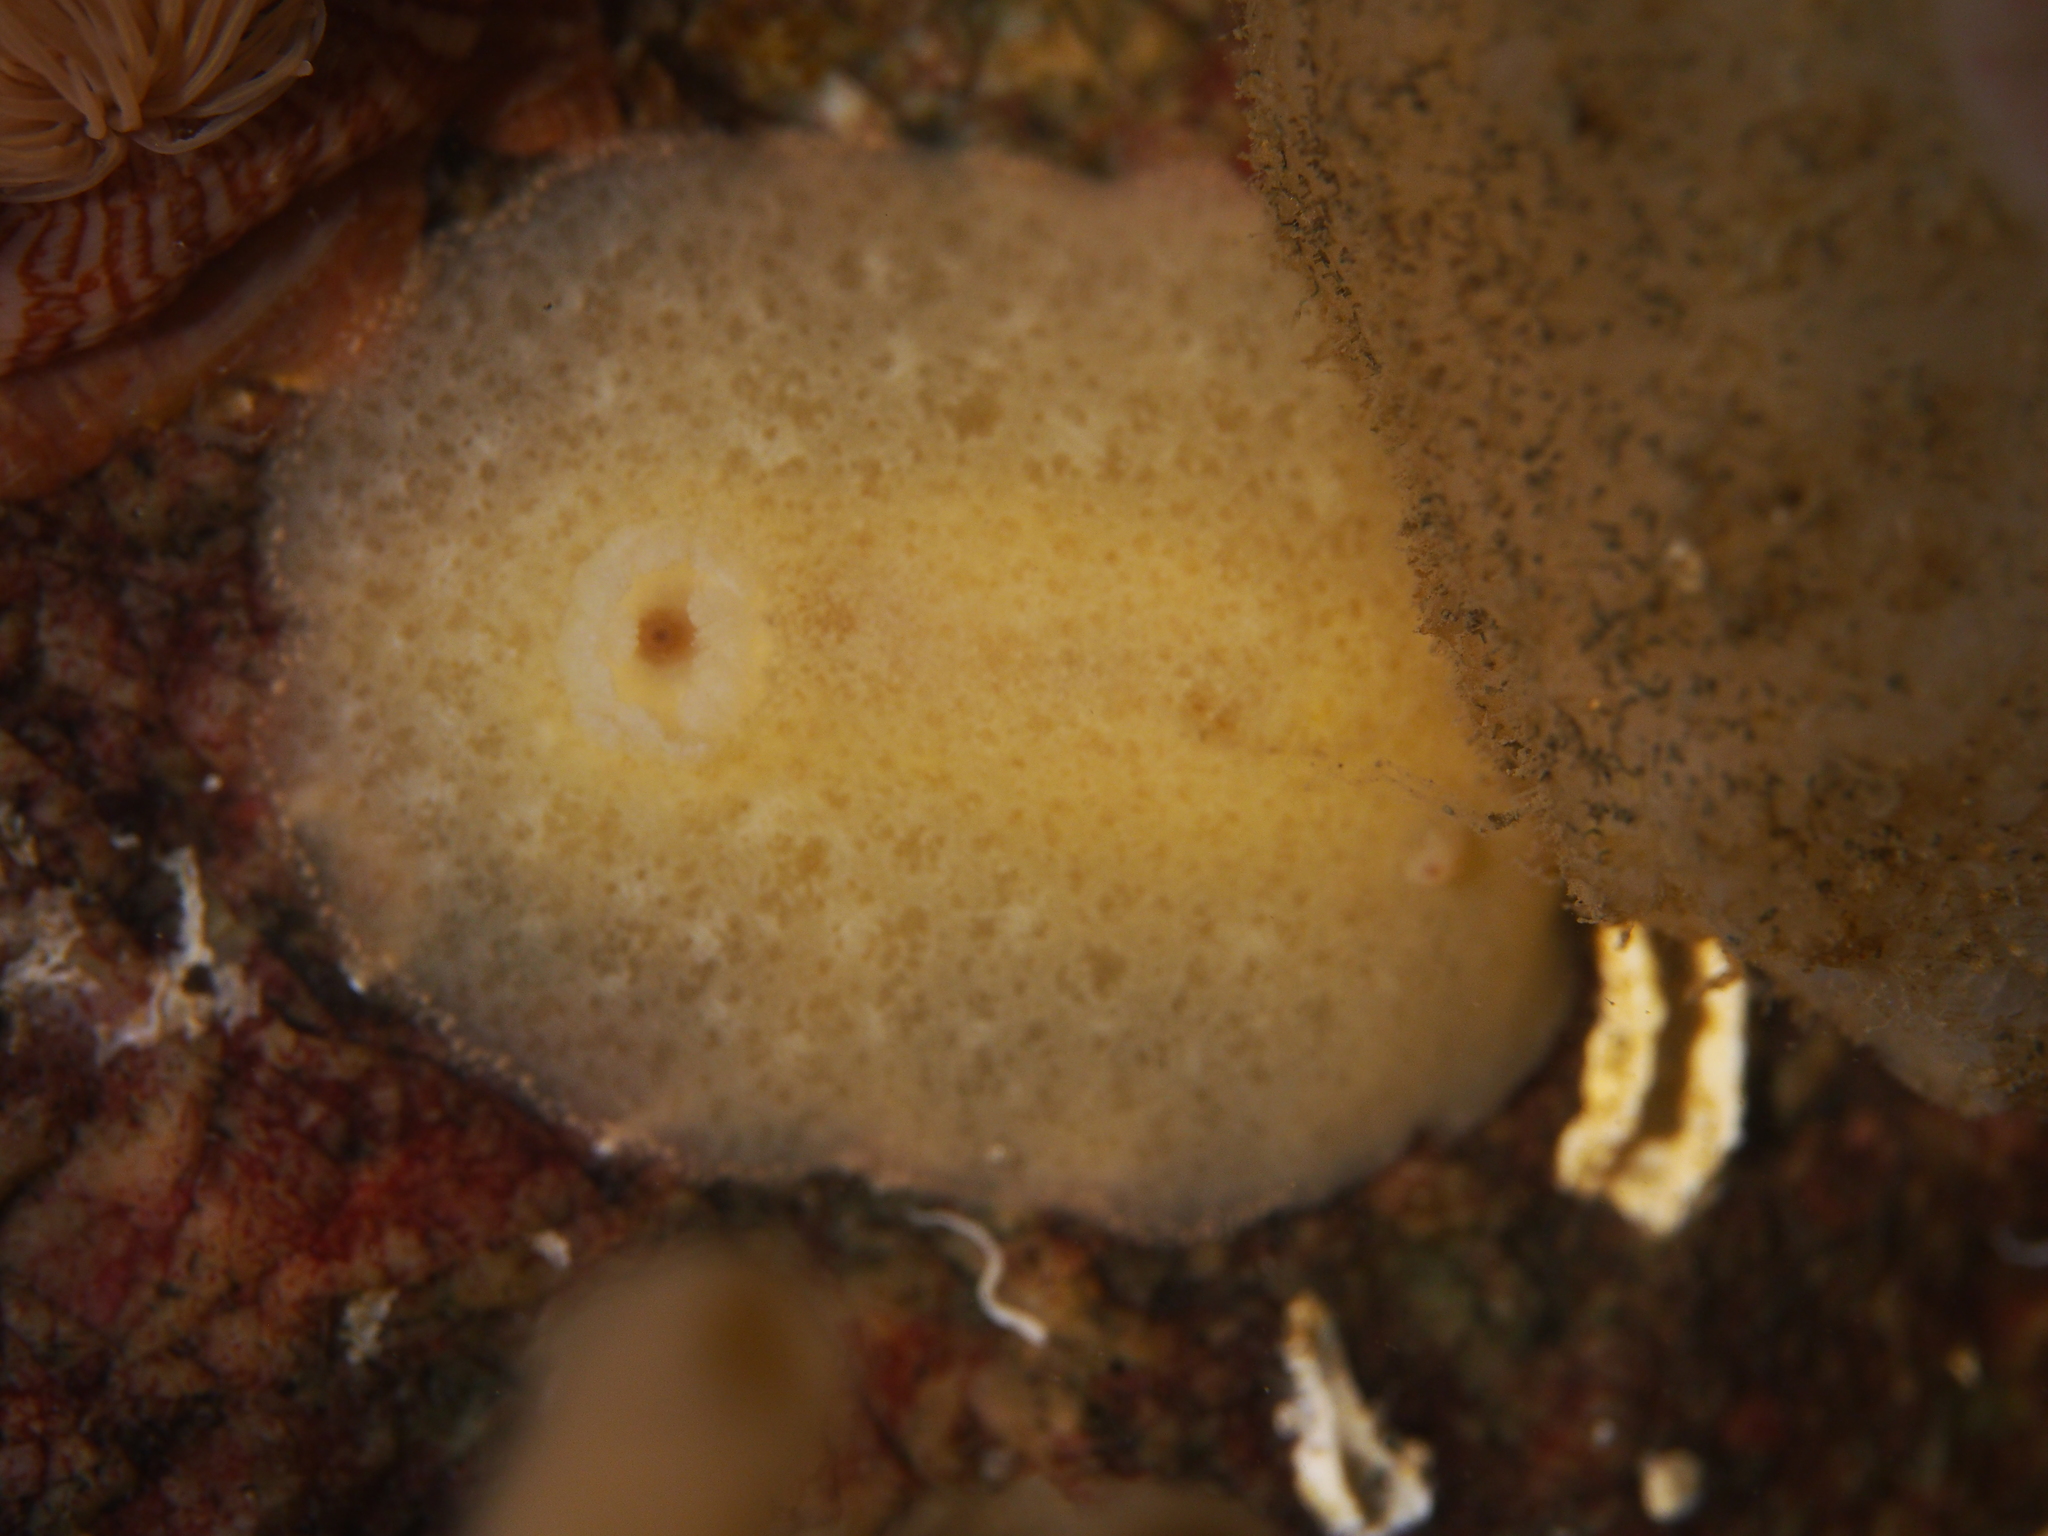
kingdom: Animalia
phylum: Mollusca
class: Gastropoda
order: Nudibranchia
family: Discodorididae
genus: Jorunna
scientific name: Jorunna tomentosa
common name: Grey sea slug
